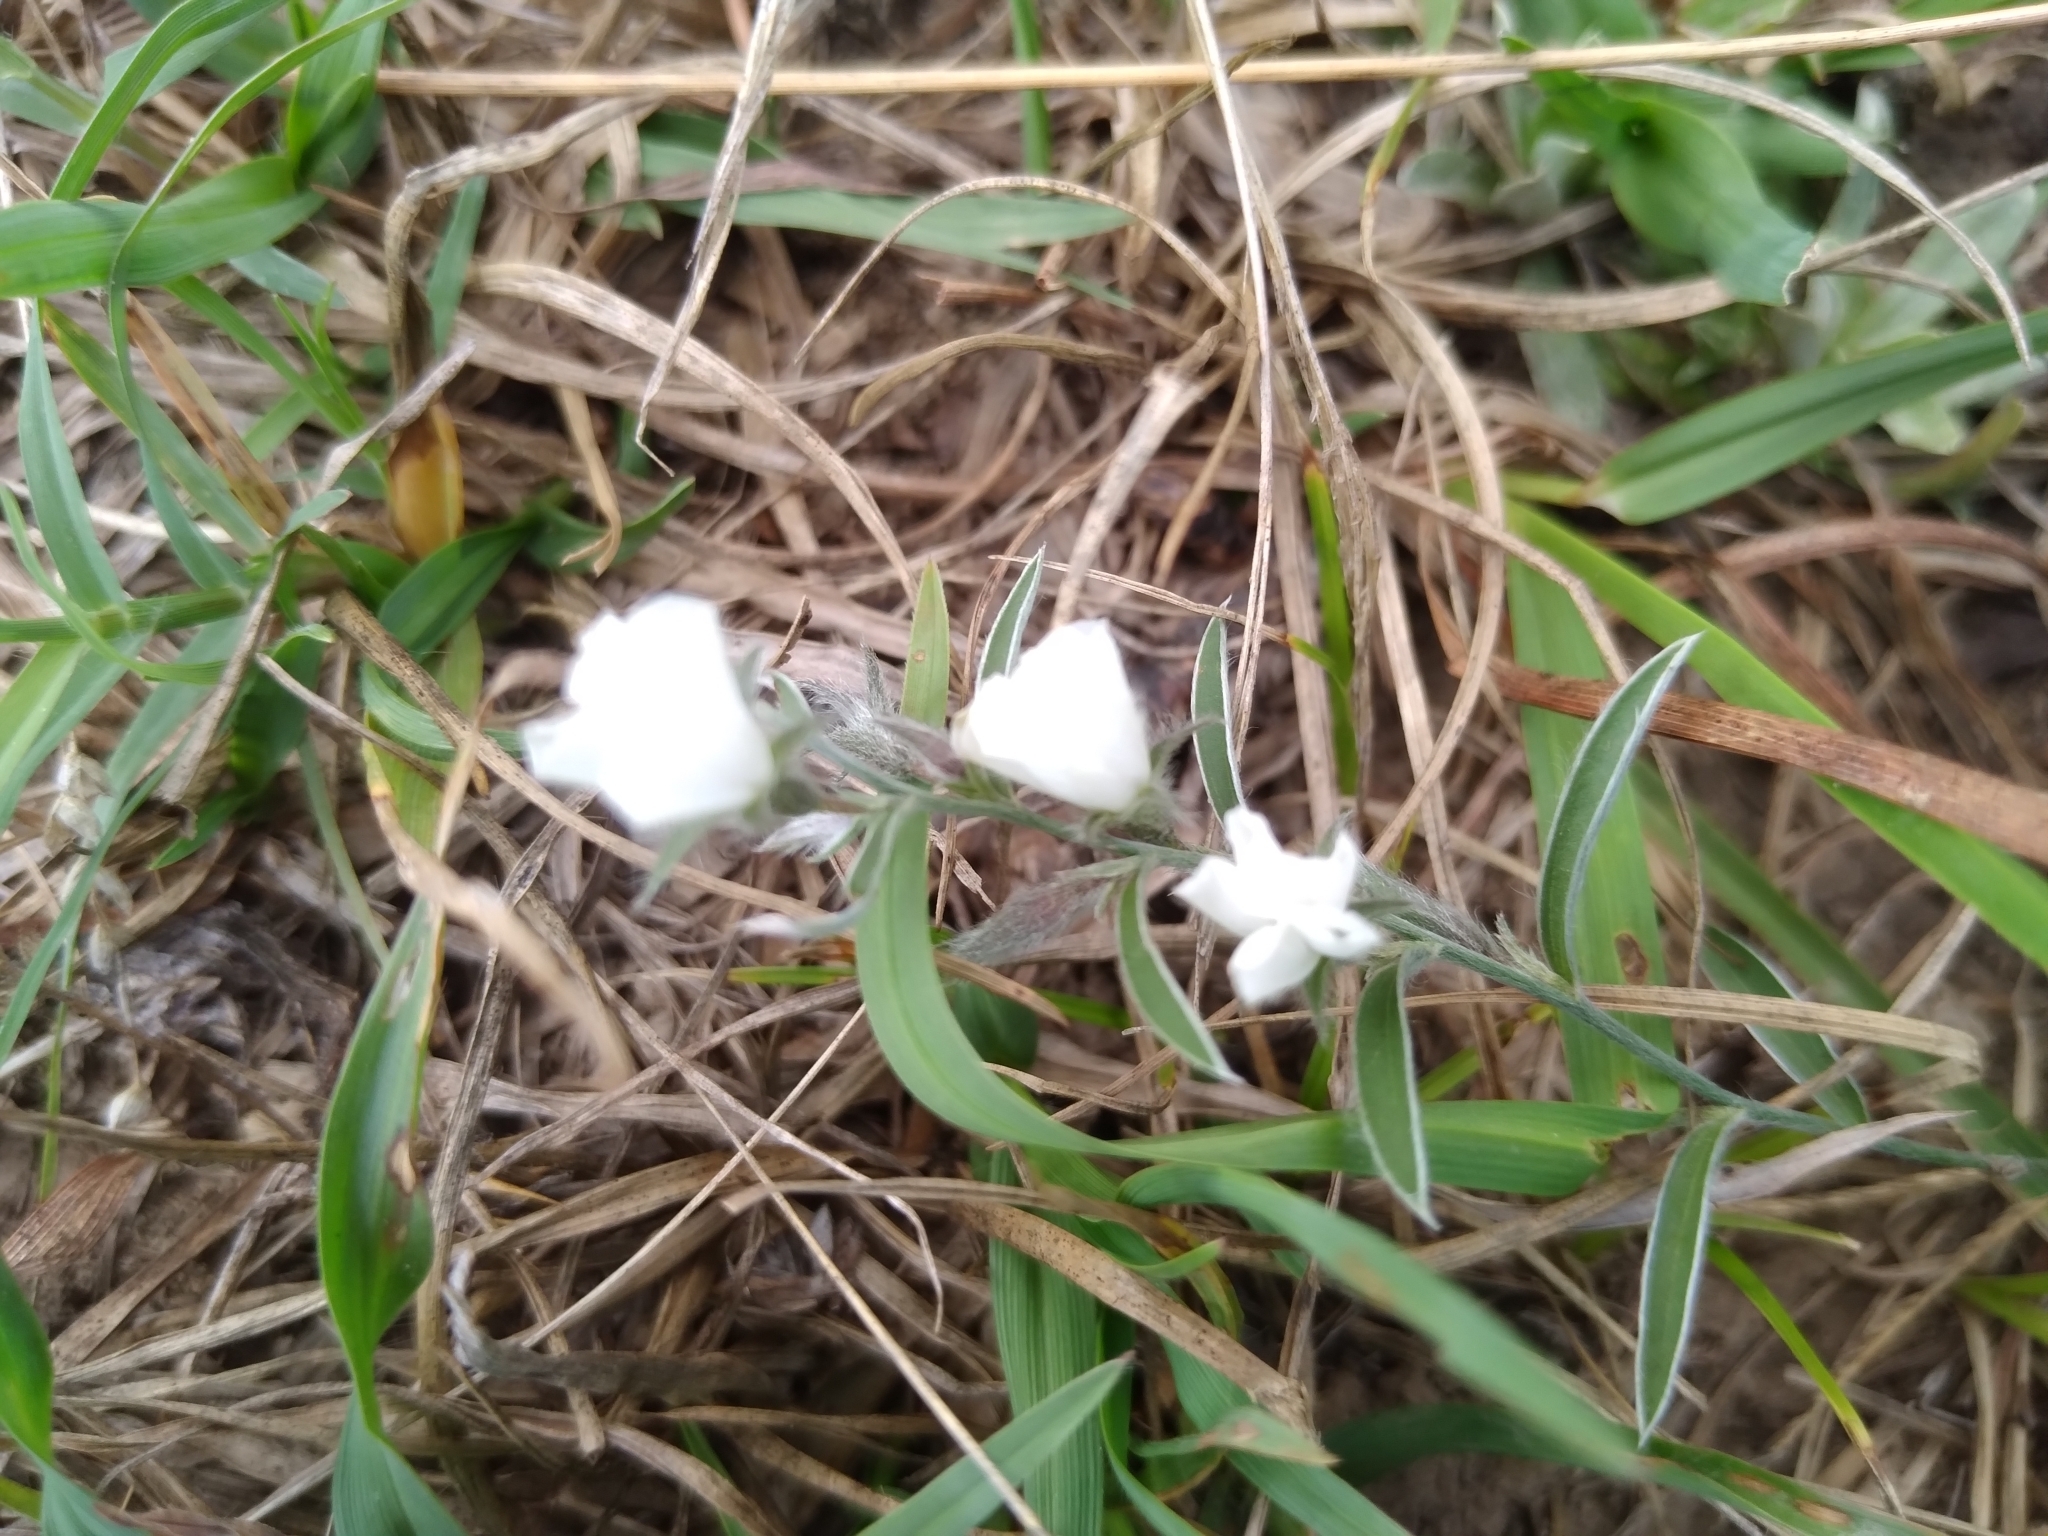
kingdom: Plantae
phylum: Tracheophyta
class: Magnoliopsida
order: Solanales
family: Convolvulaceae
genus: Evolvulus
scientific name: Evolvulus sericeus
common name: Blue dots
